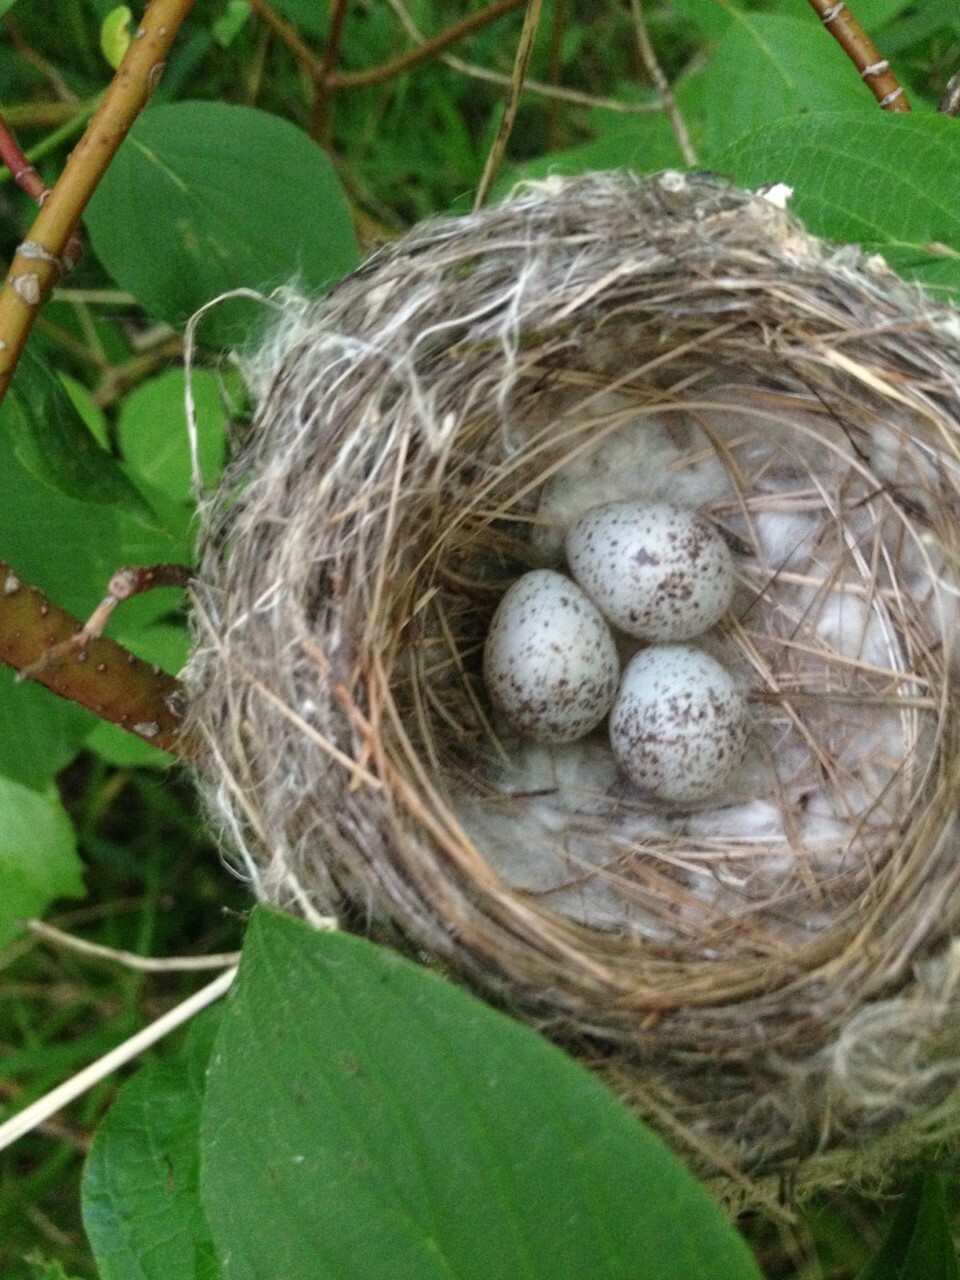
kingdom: Animalia
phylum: Chordata
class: Aves
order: Passeriformes
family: Parulidae
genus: Setophaga
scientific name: Setophaga petechia
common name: Yellow warbler
